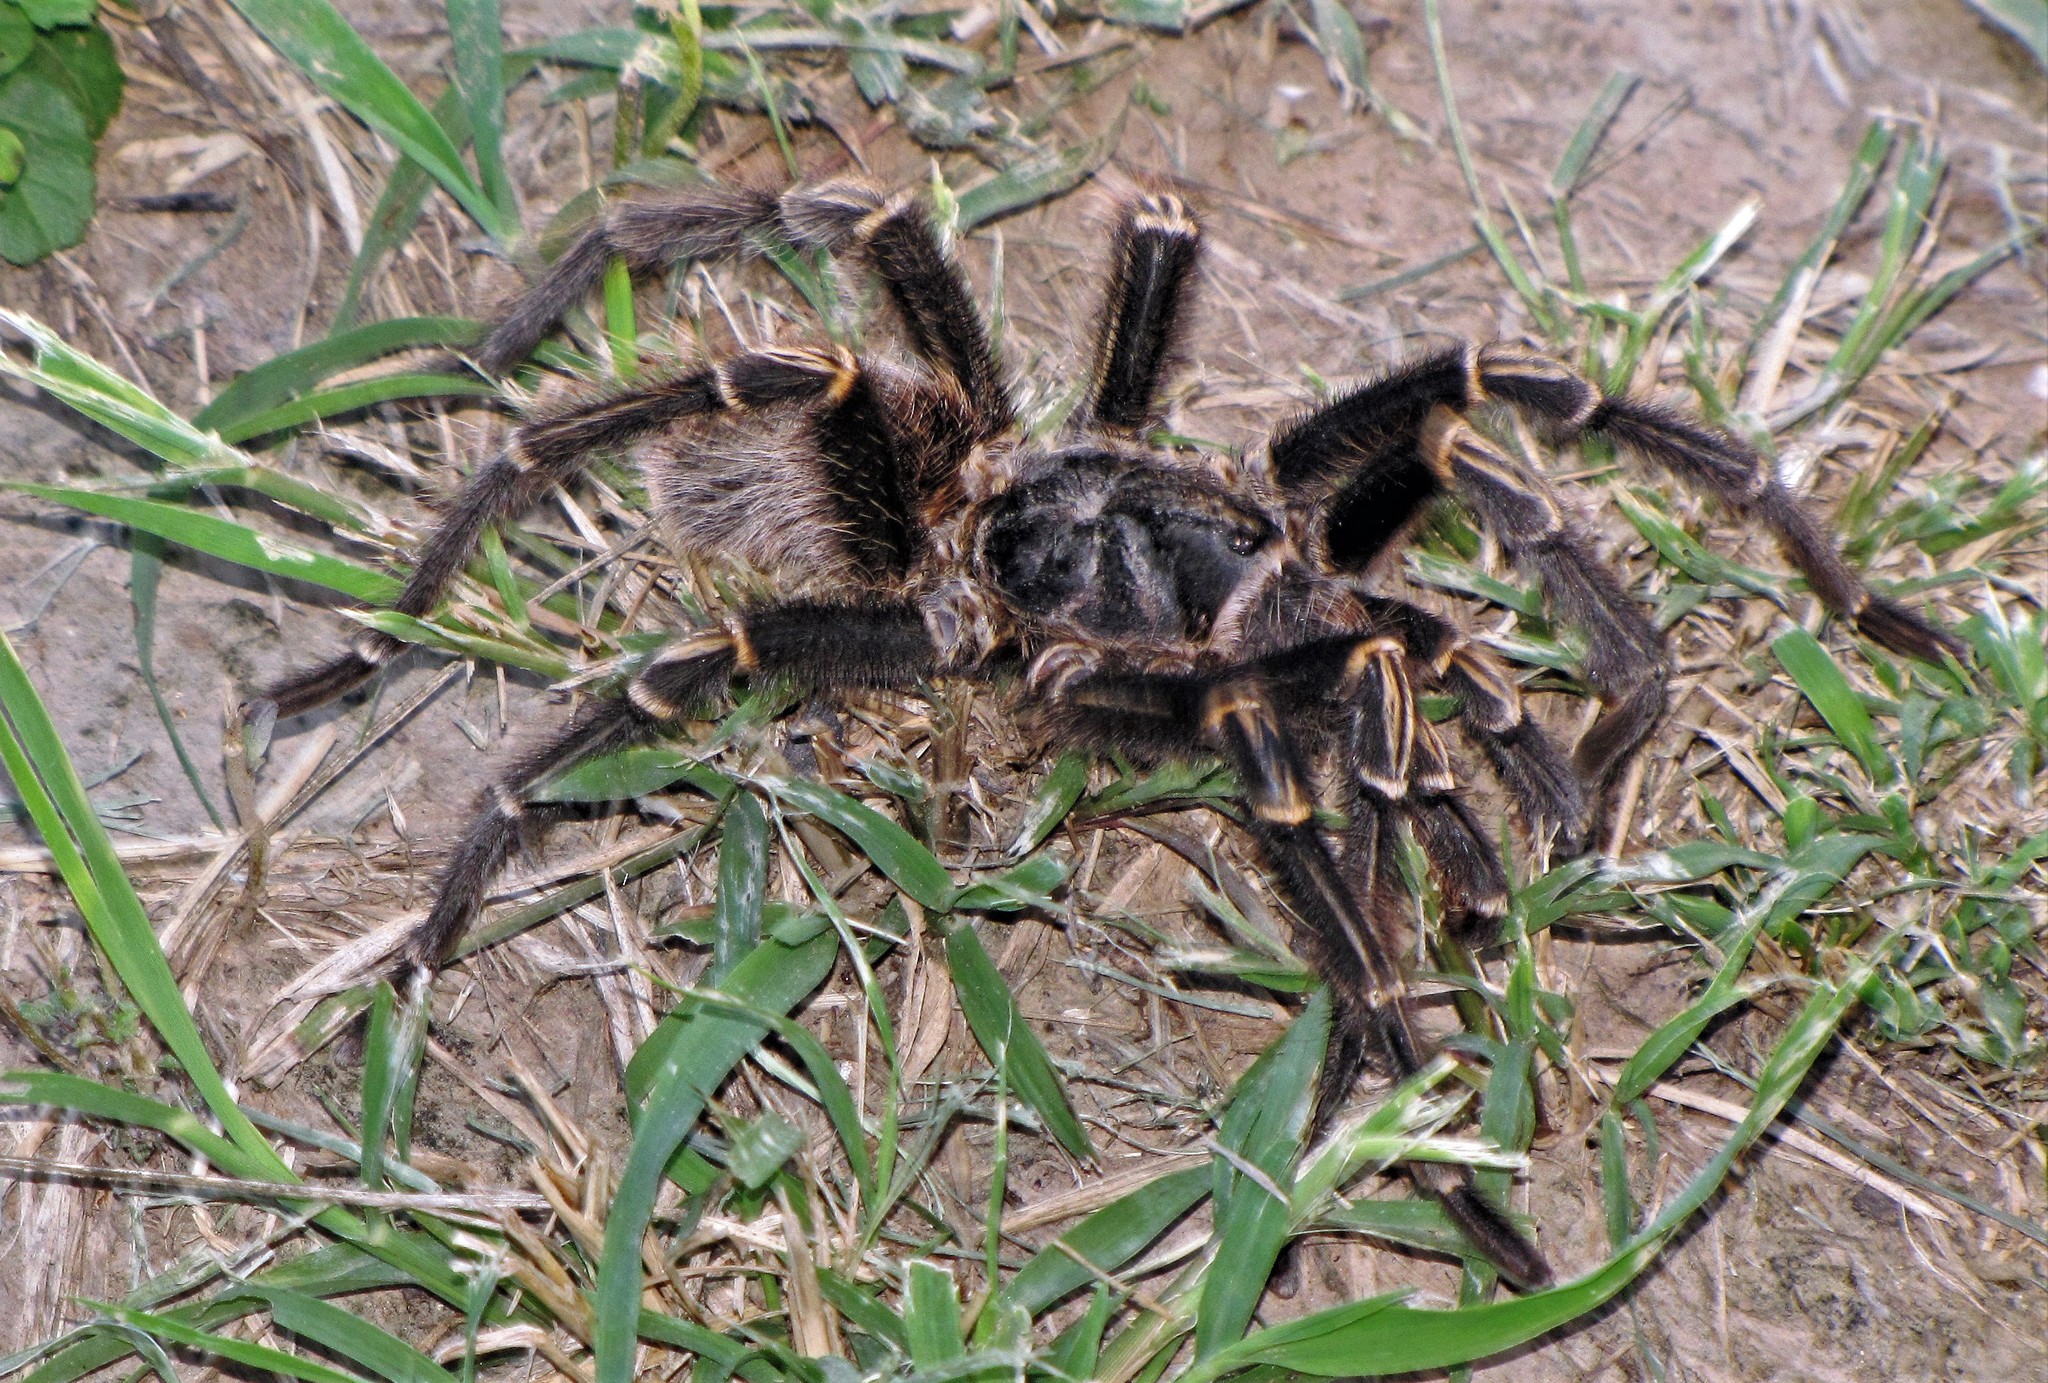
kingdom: Animalia
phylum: Arthropoda
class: Arachnida
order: Araneae
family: Theraphosidae
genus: Grammostola
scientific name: Grammostola pulchripes
